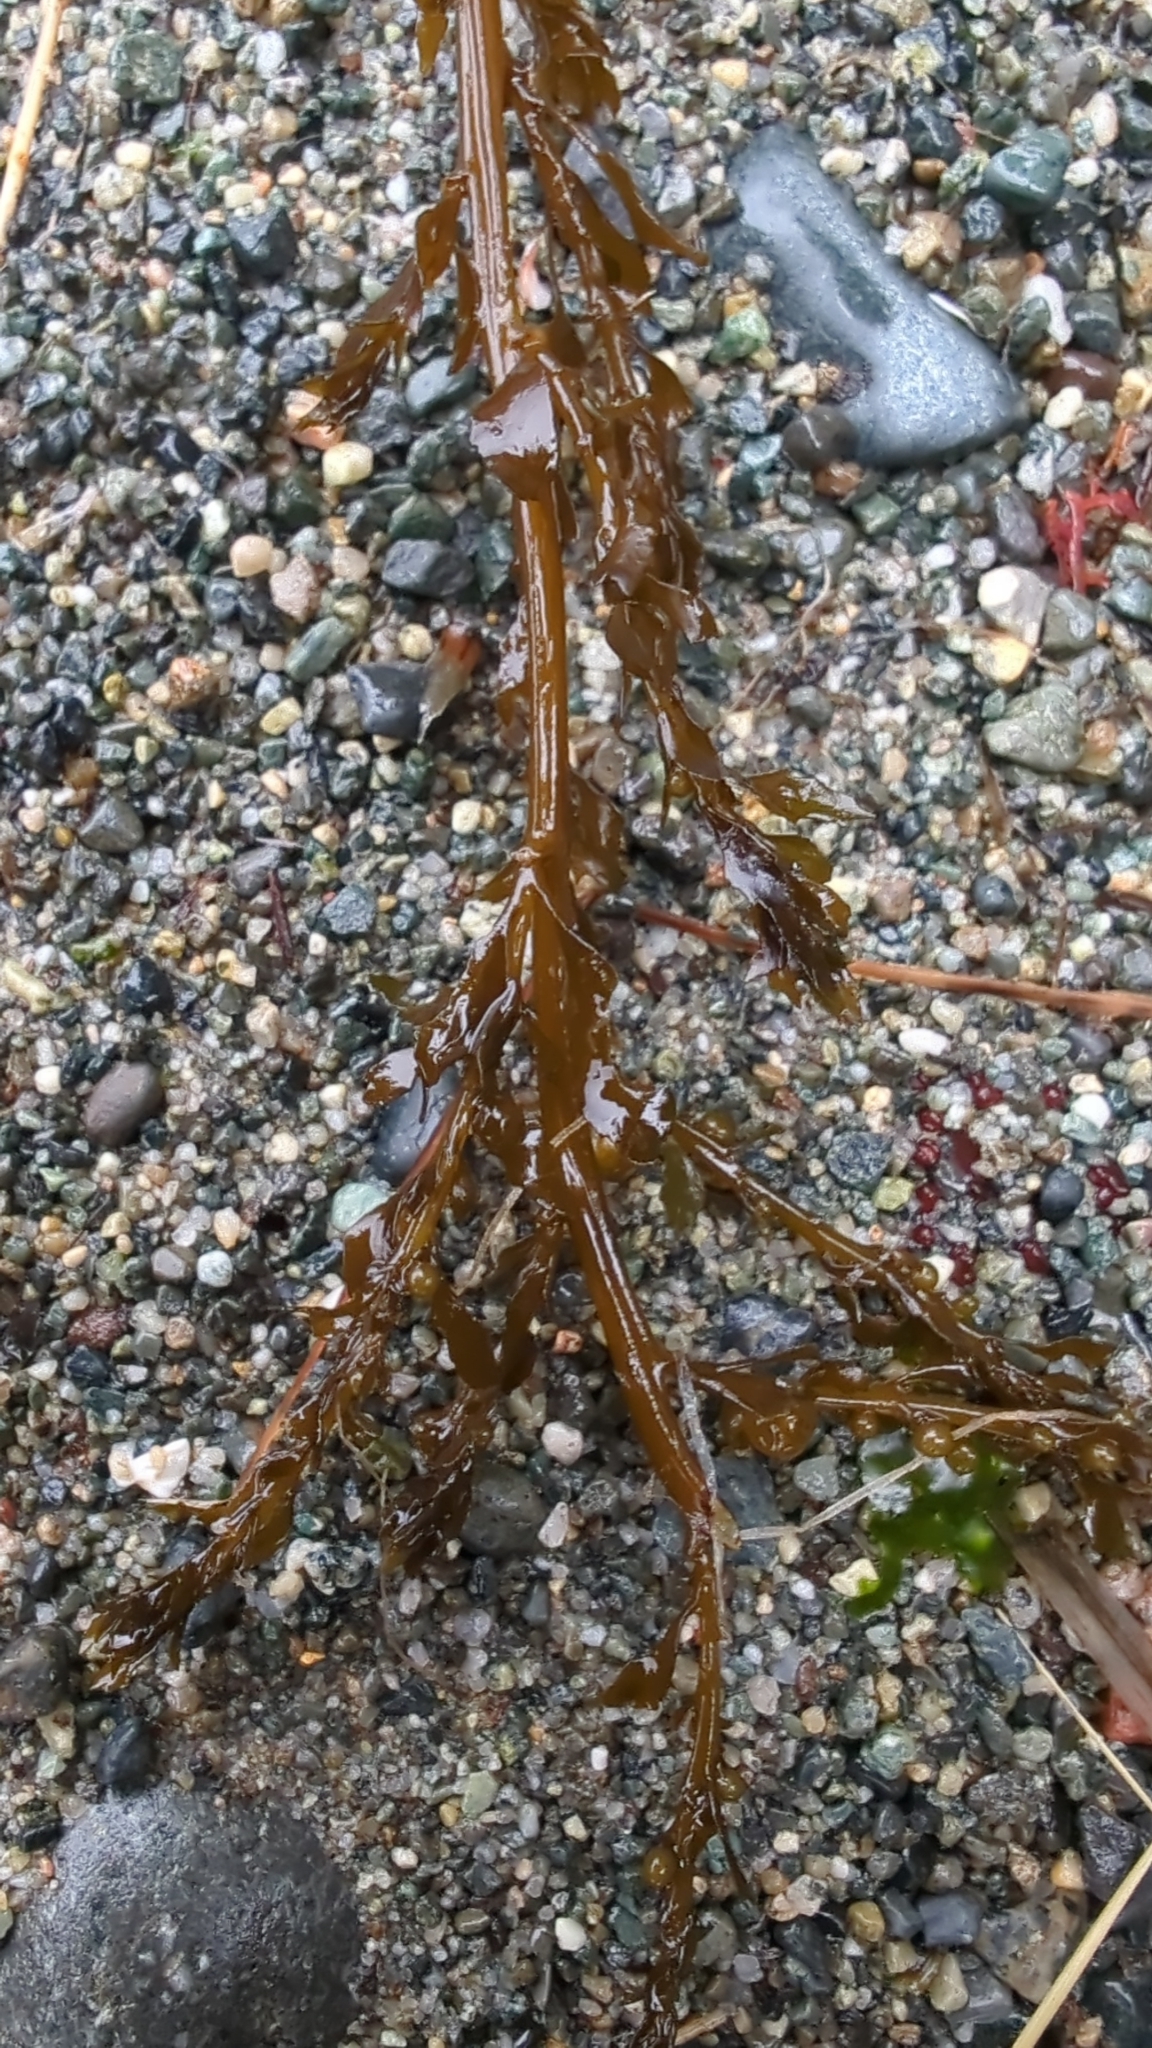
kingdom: Chromista
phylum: Ochrophyta
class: Phaeophyceae
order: Fucales
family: Sargassaceae
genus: Sargassum
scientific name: Sargassum muticum
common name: Japweed
